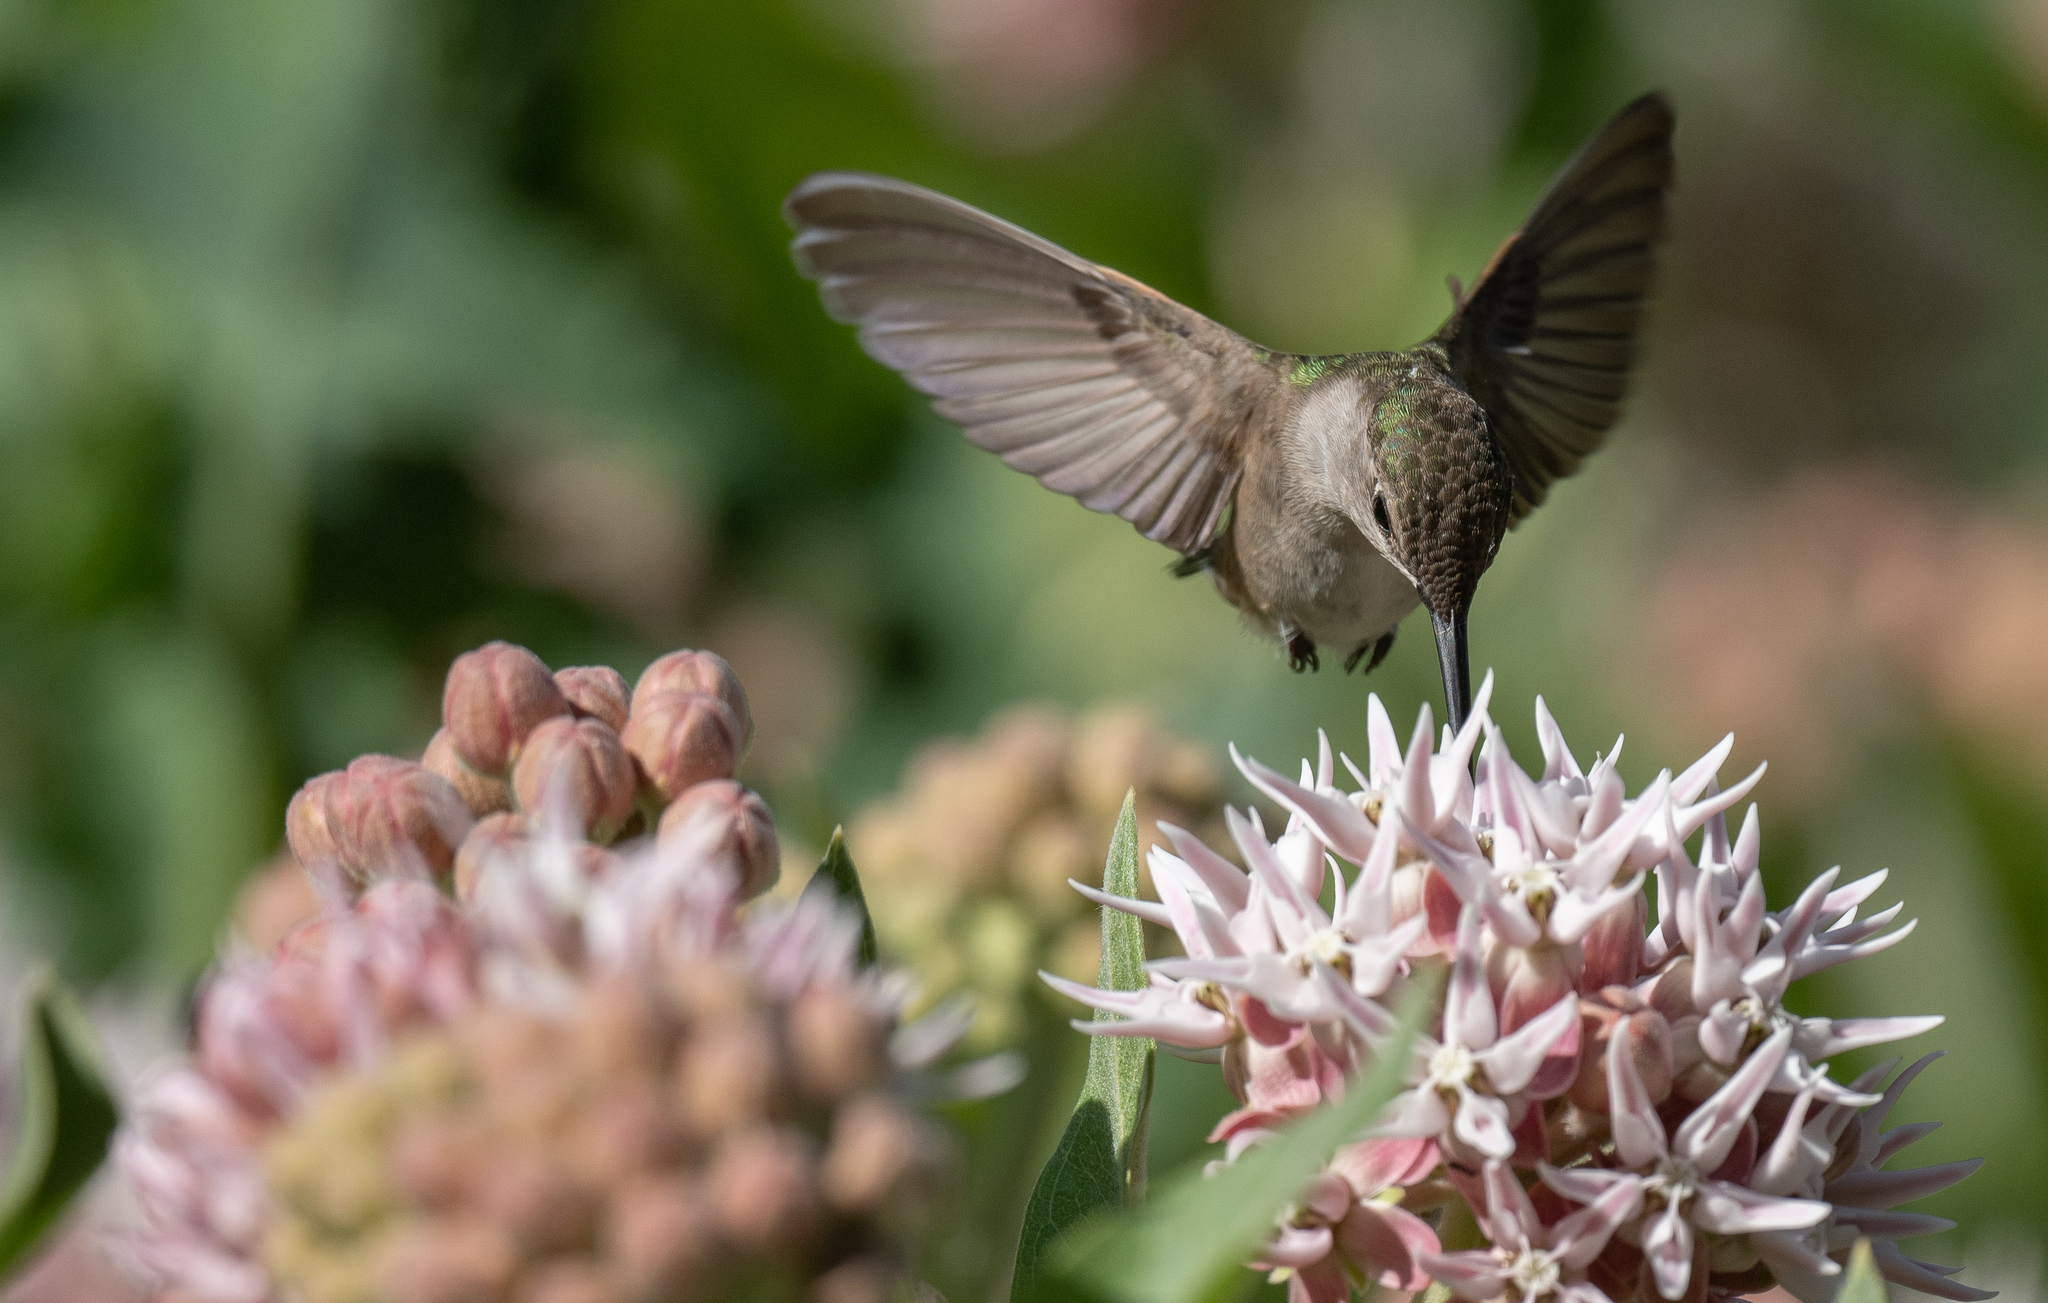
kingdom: Animalia
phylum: Chordata
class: Aves
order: Apodiformes
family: Trochilidae
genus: Archilochus
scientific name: Archilochus alexandri
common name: Black-chinned hummingbird
